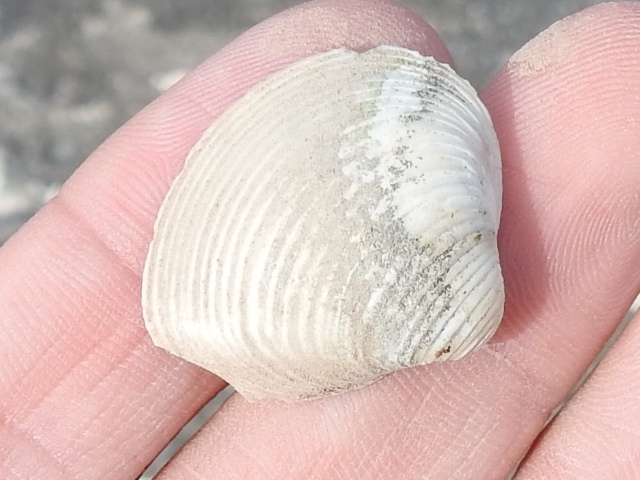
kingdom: Animalia
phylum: Mollusca
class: Bivalvia
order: Venerida
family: Cyrenidae
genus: Corbicula
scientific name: Corbicula fluminea
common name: Asian clam
